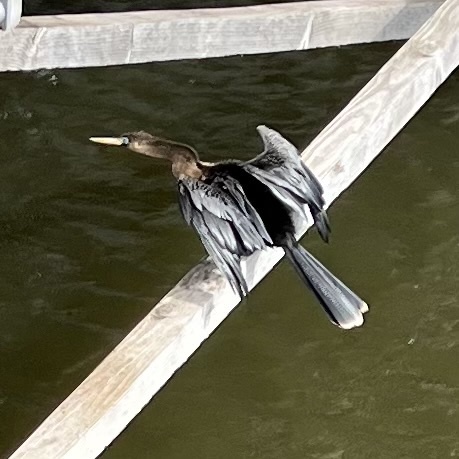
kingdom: Animalia
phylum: Chordata
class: Aves
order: Suliformes
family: Anhingidae
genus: Anhinga
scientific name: Anhinga anhinga
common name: Anhinga
